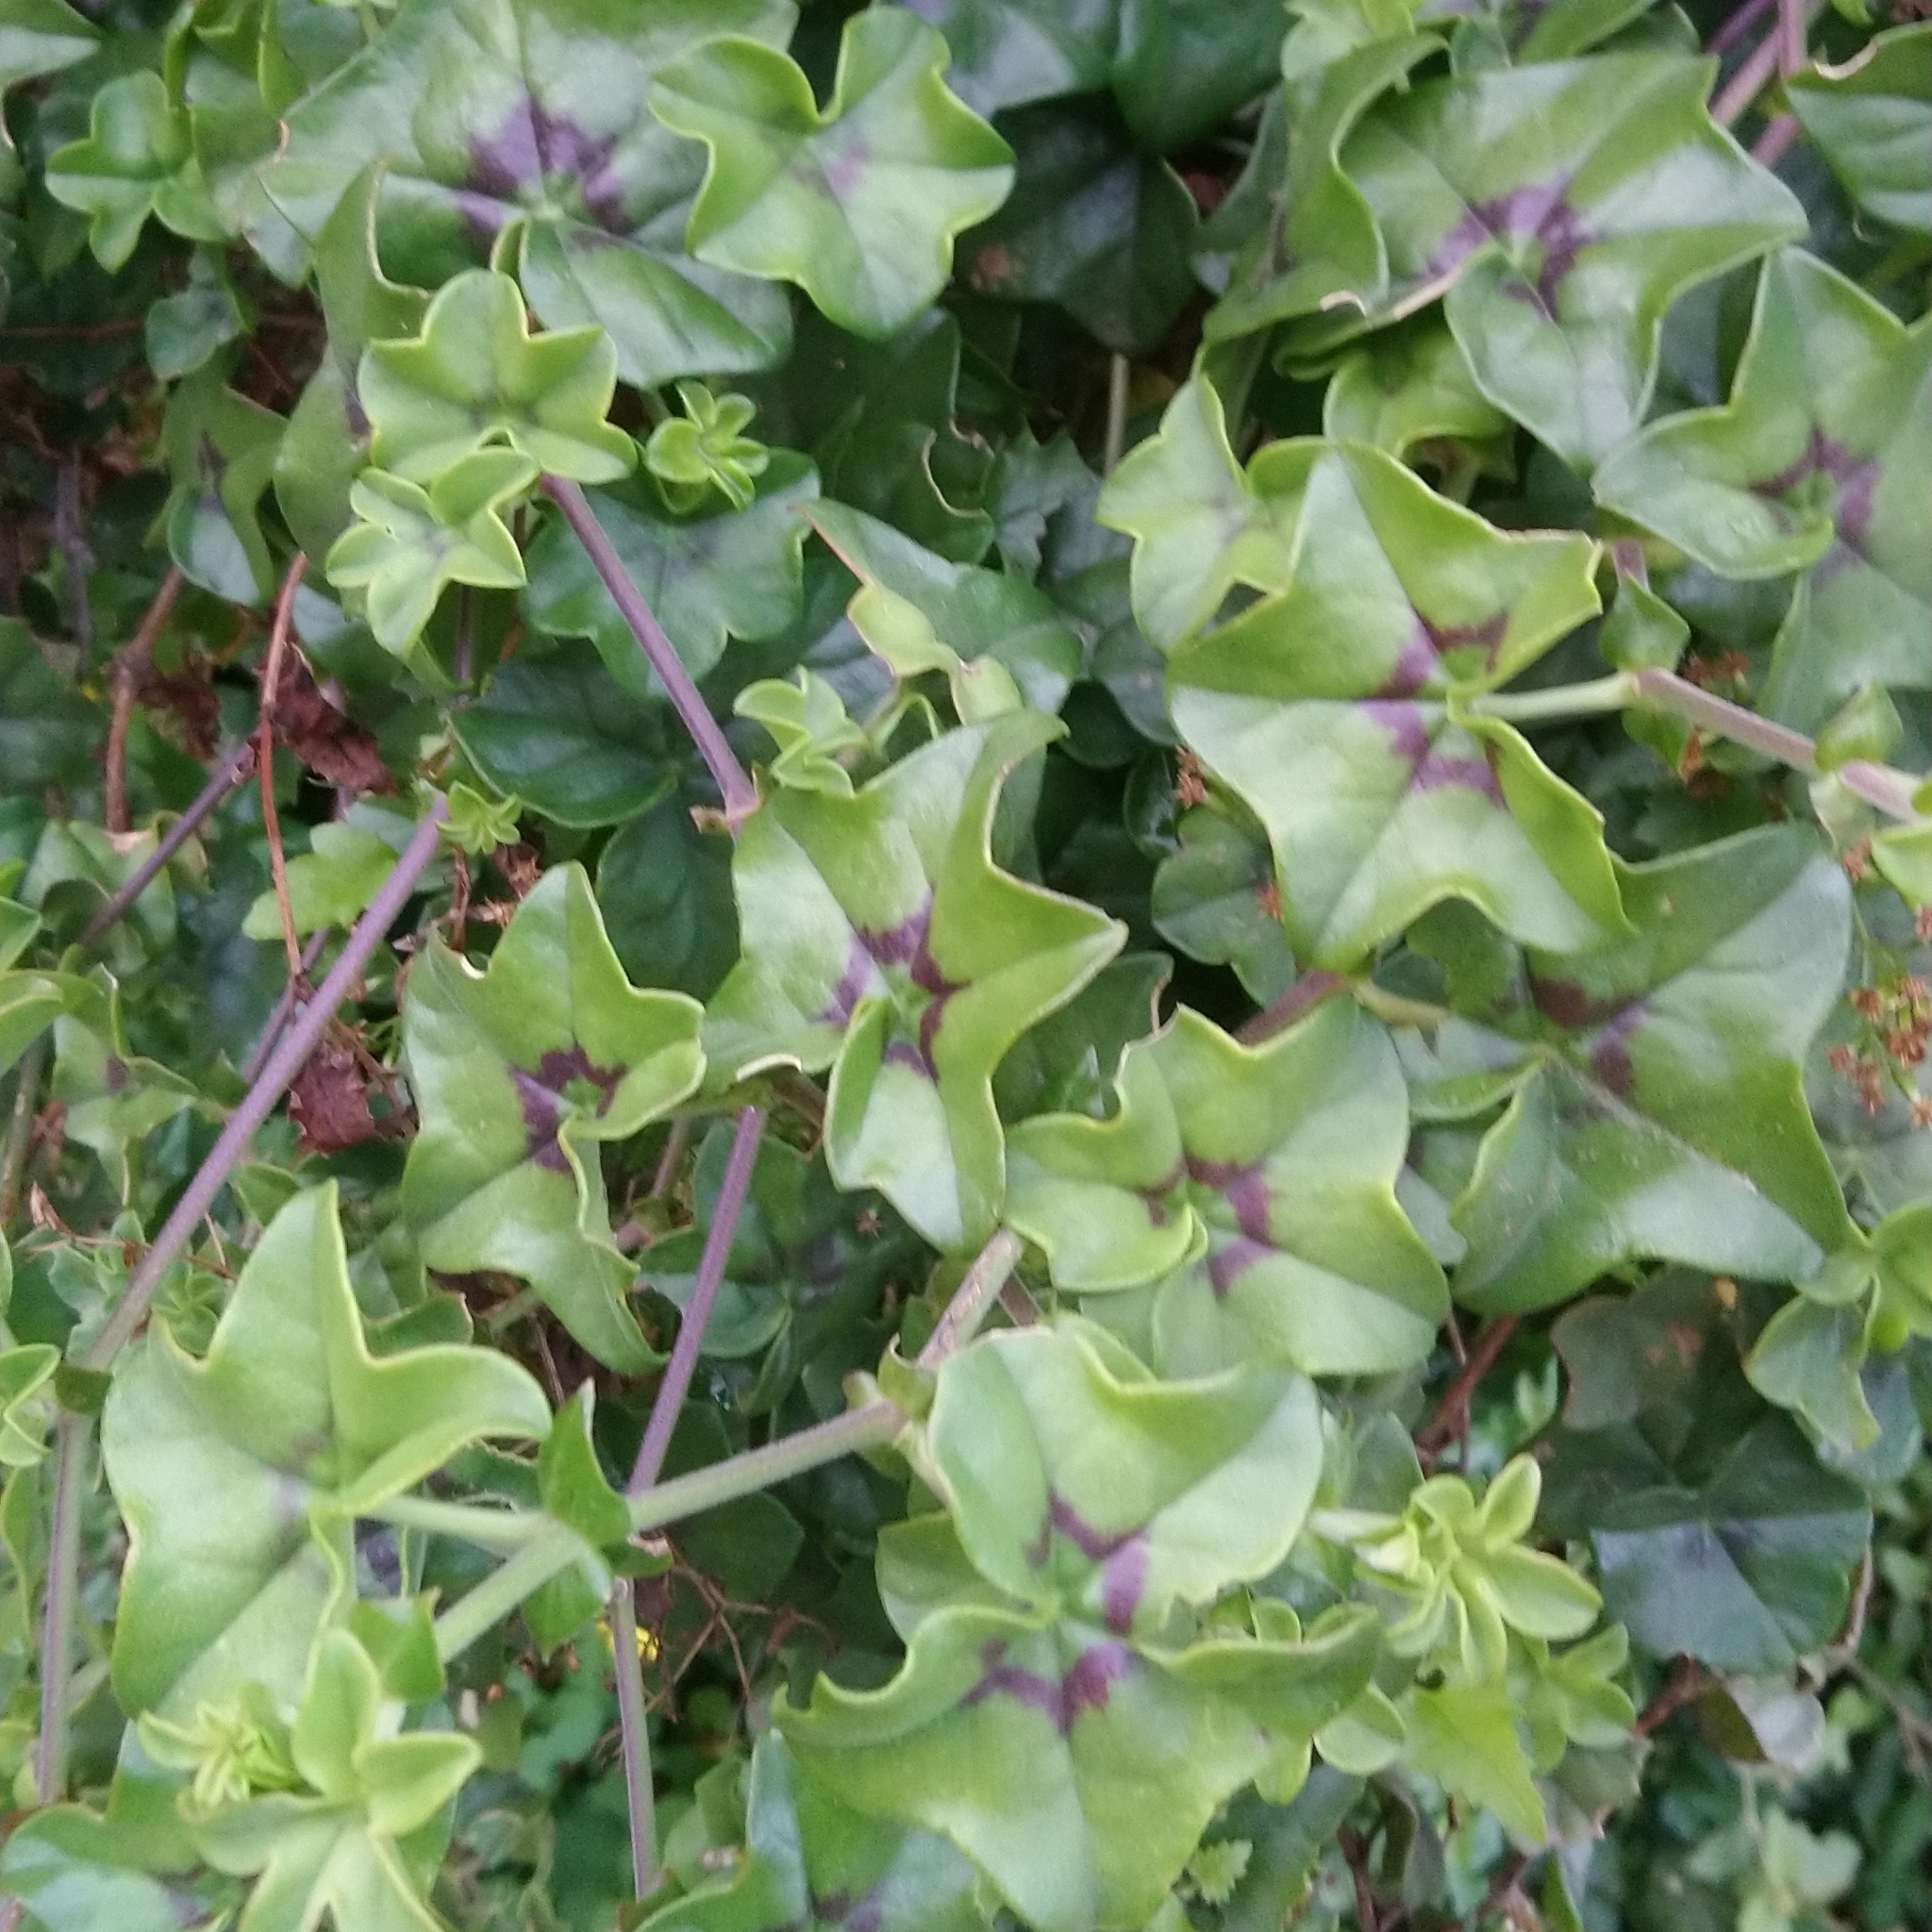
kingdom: Plantae
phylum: Tracheophyta
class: Magnoliopsida
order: Geraniales
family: Geraniaceae
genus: Pelargonium
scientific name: Pelargonium peltatum
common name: Ivyleaf geranium
